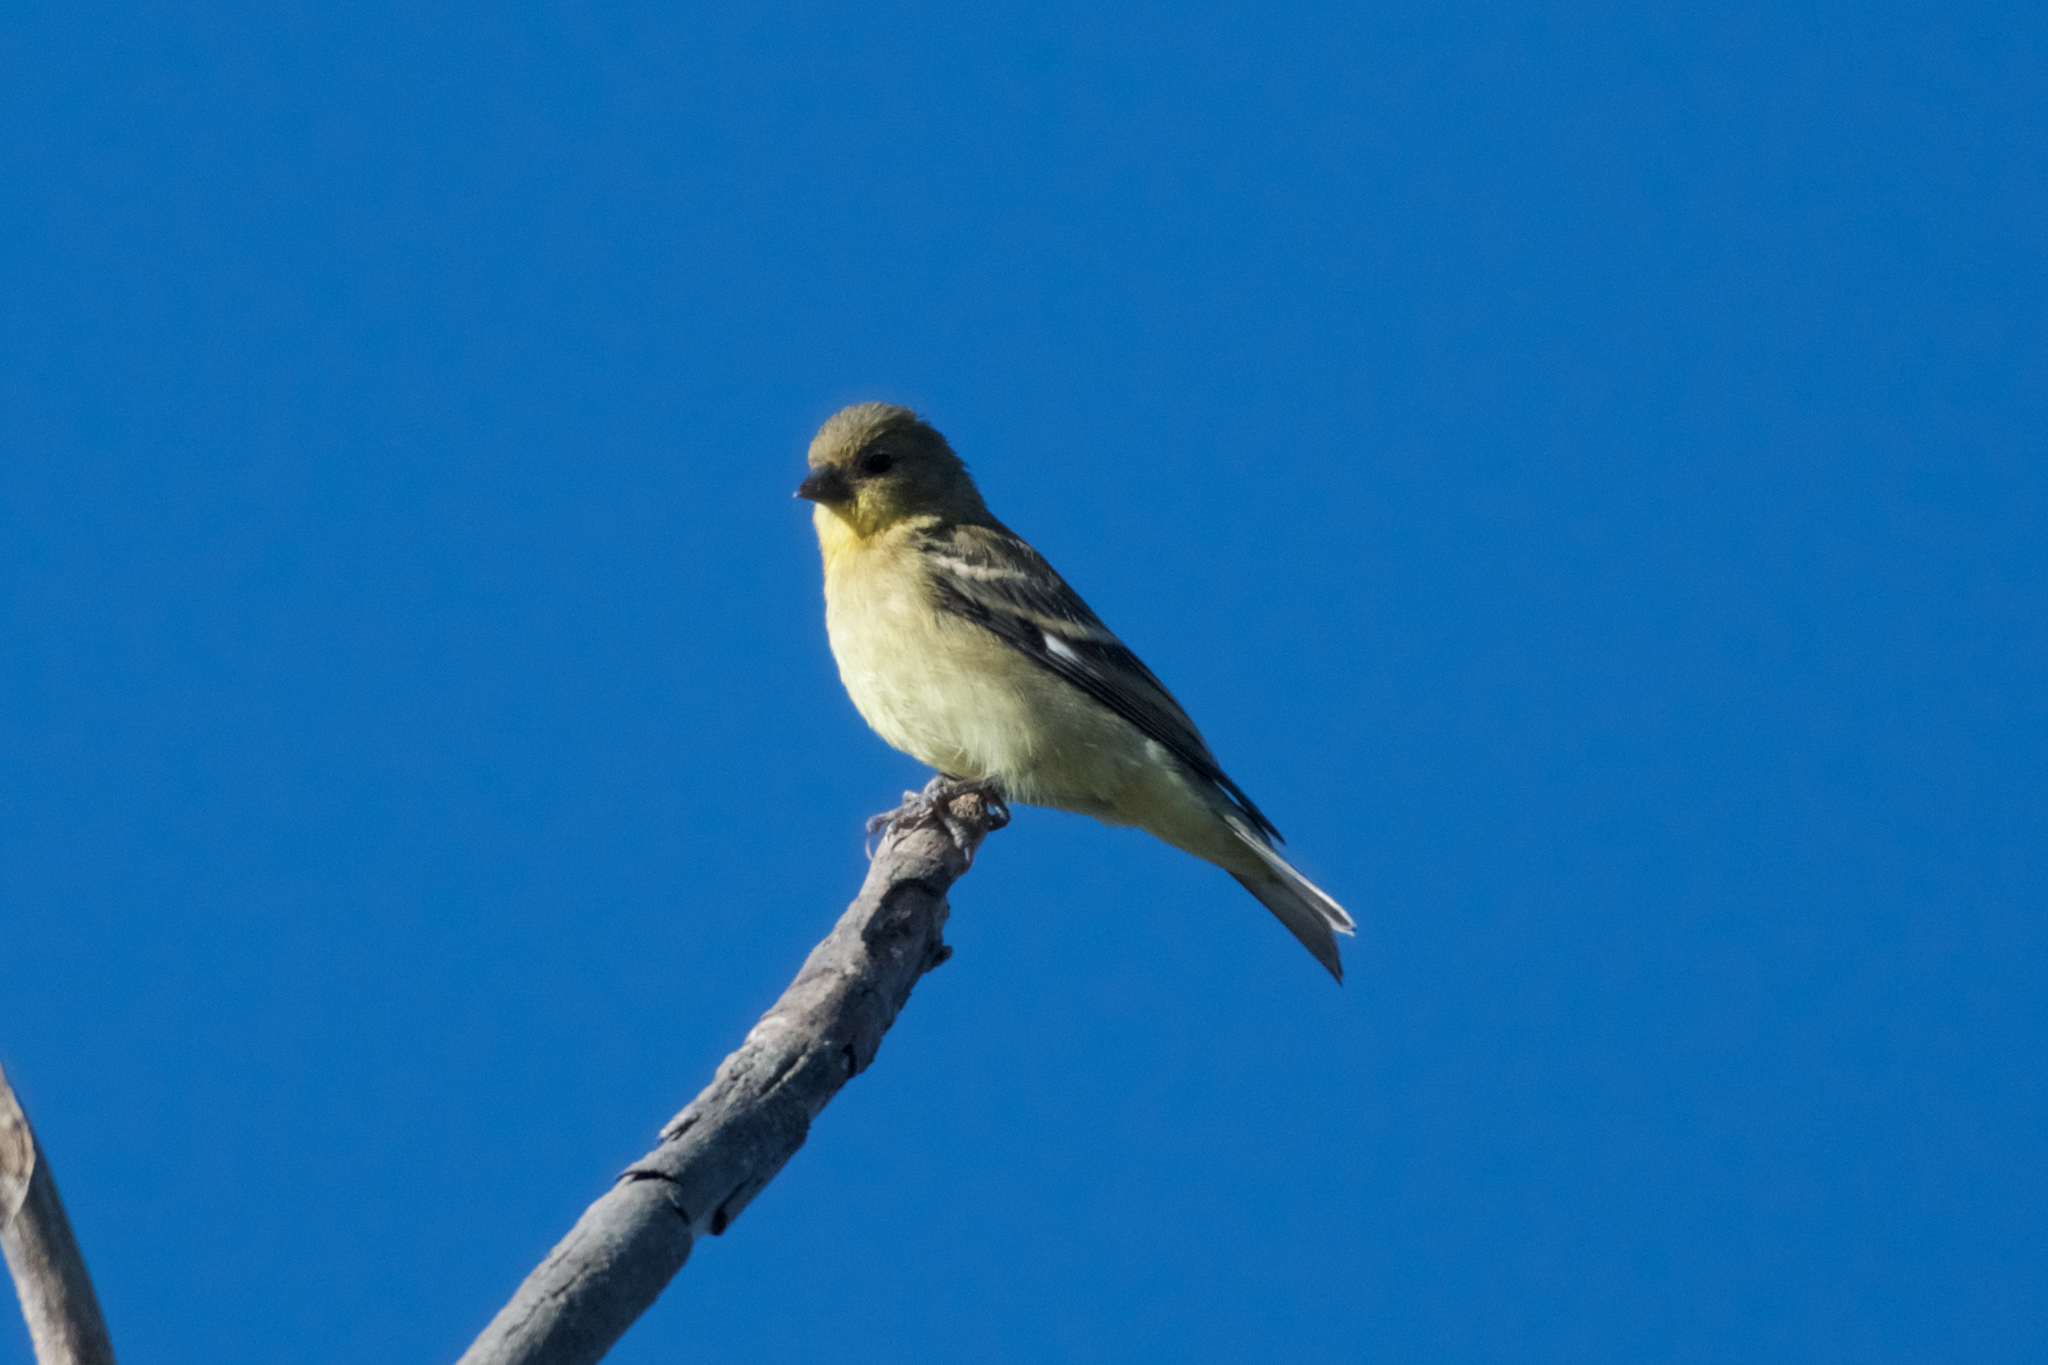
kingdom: Animalia
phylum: Chordata
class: Aves
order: Passeriformes
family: Fringillidae
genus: Spinus
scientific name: Spinus psaltria
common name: Lesser goldfinch
